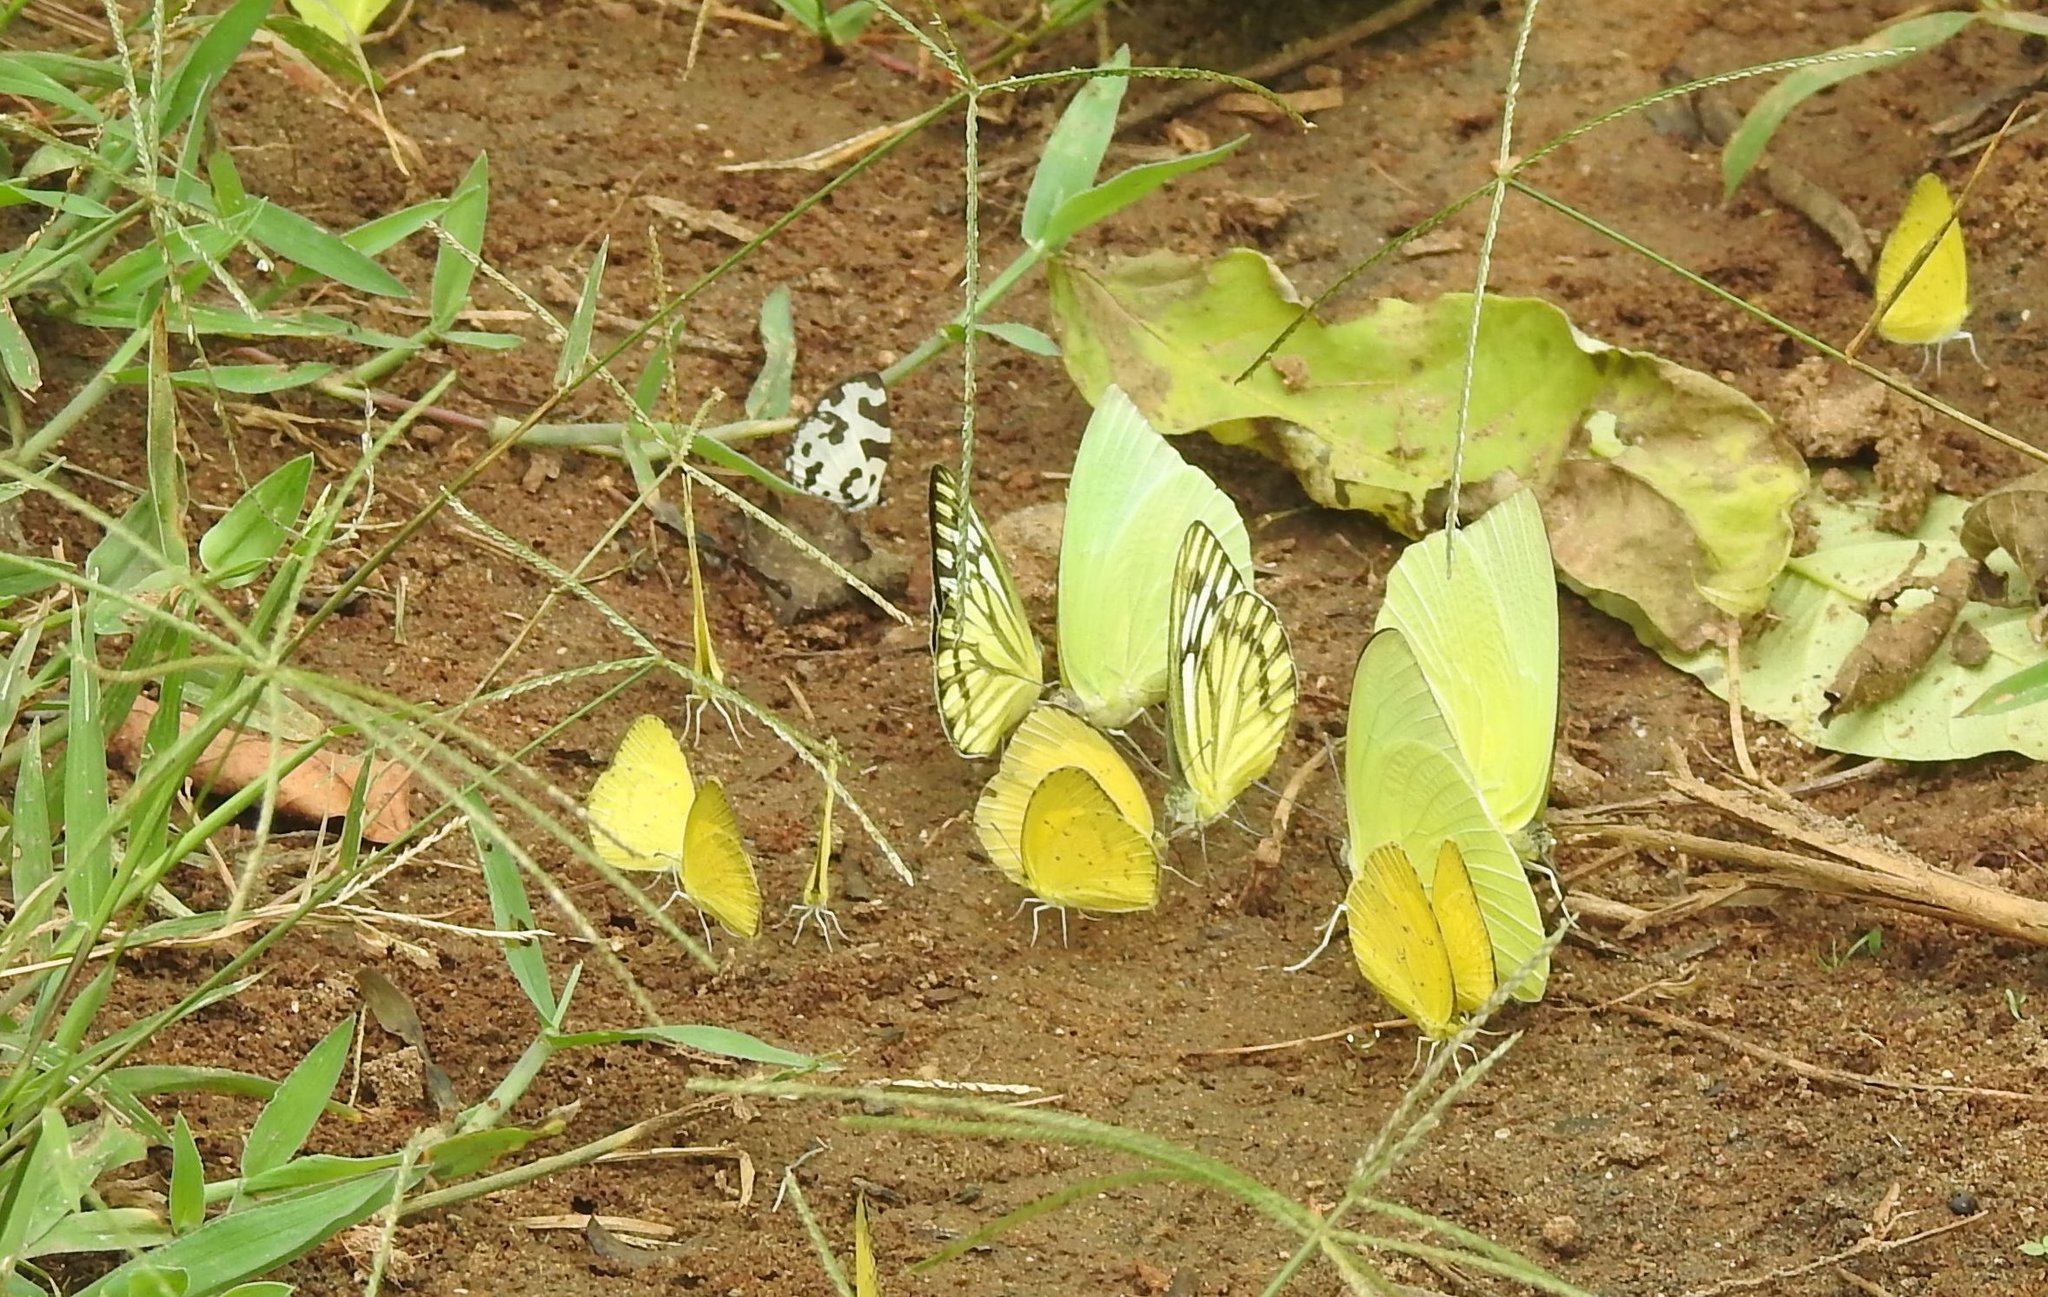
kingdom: Animalia
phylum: Arthropoda
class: Insecta
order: Lepidoptera
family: Pieridae
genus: Cepora
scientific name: Cepora nerissa
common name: Common gull
